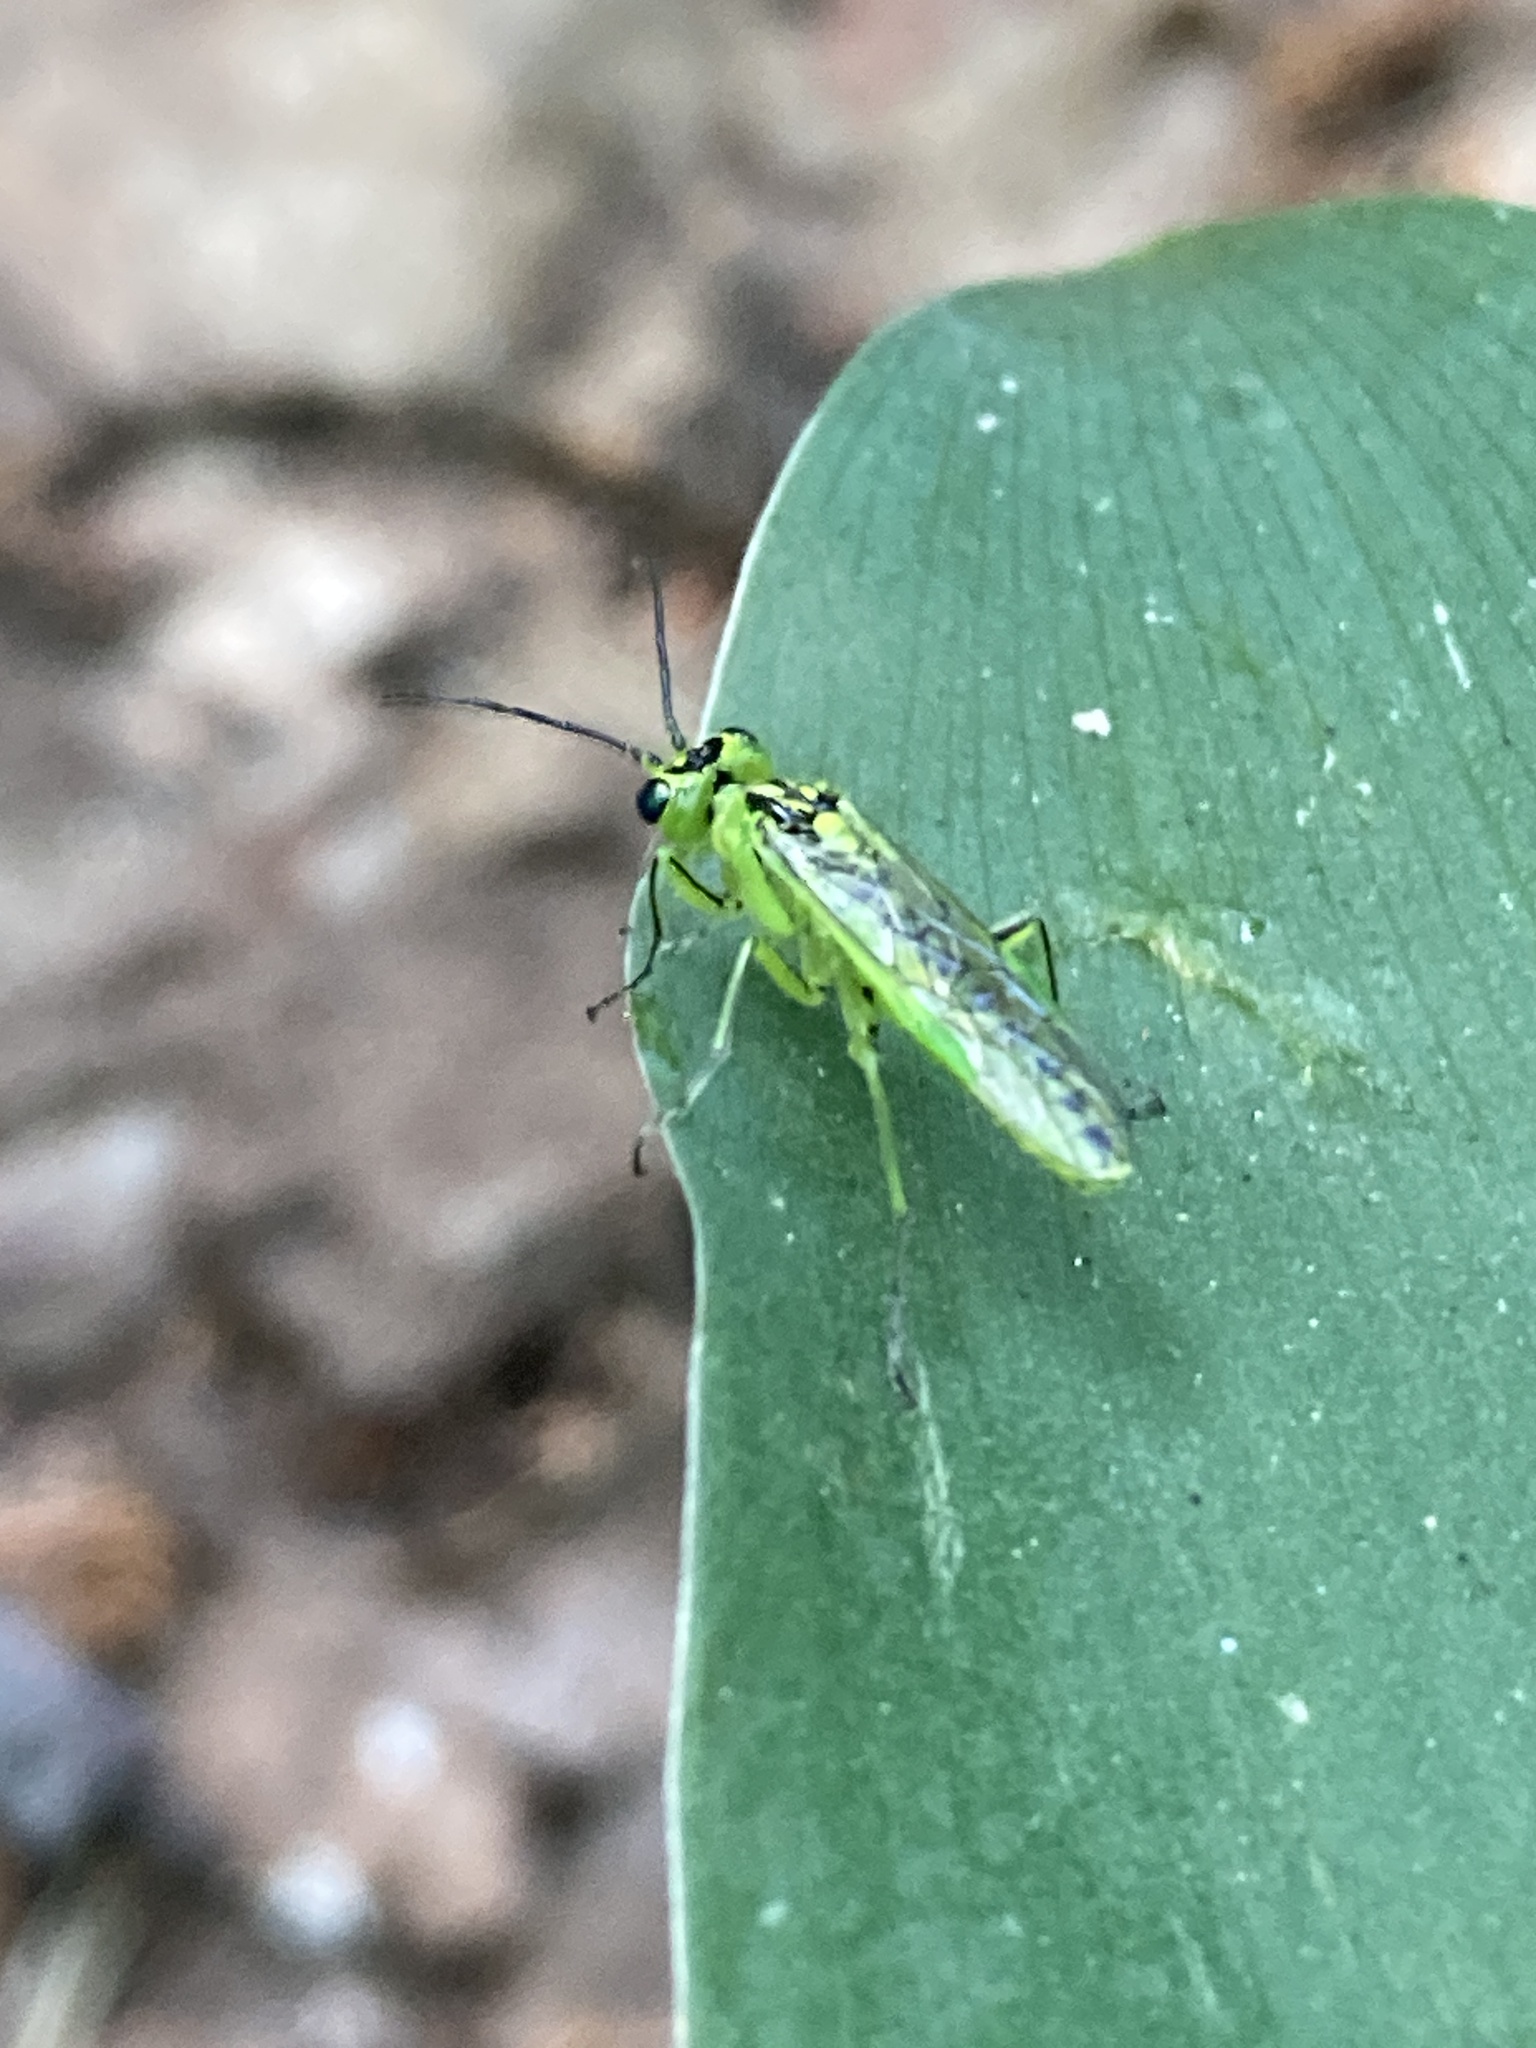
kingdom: Animalia
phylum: Arthropoda
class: Insecta
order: Hymenoptera
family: Tenthredinidae
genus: Rhogogaster
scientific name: Rhogogaster chlorosoma
